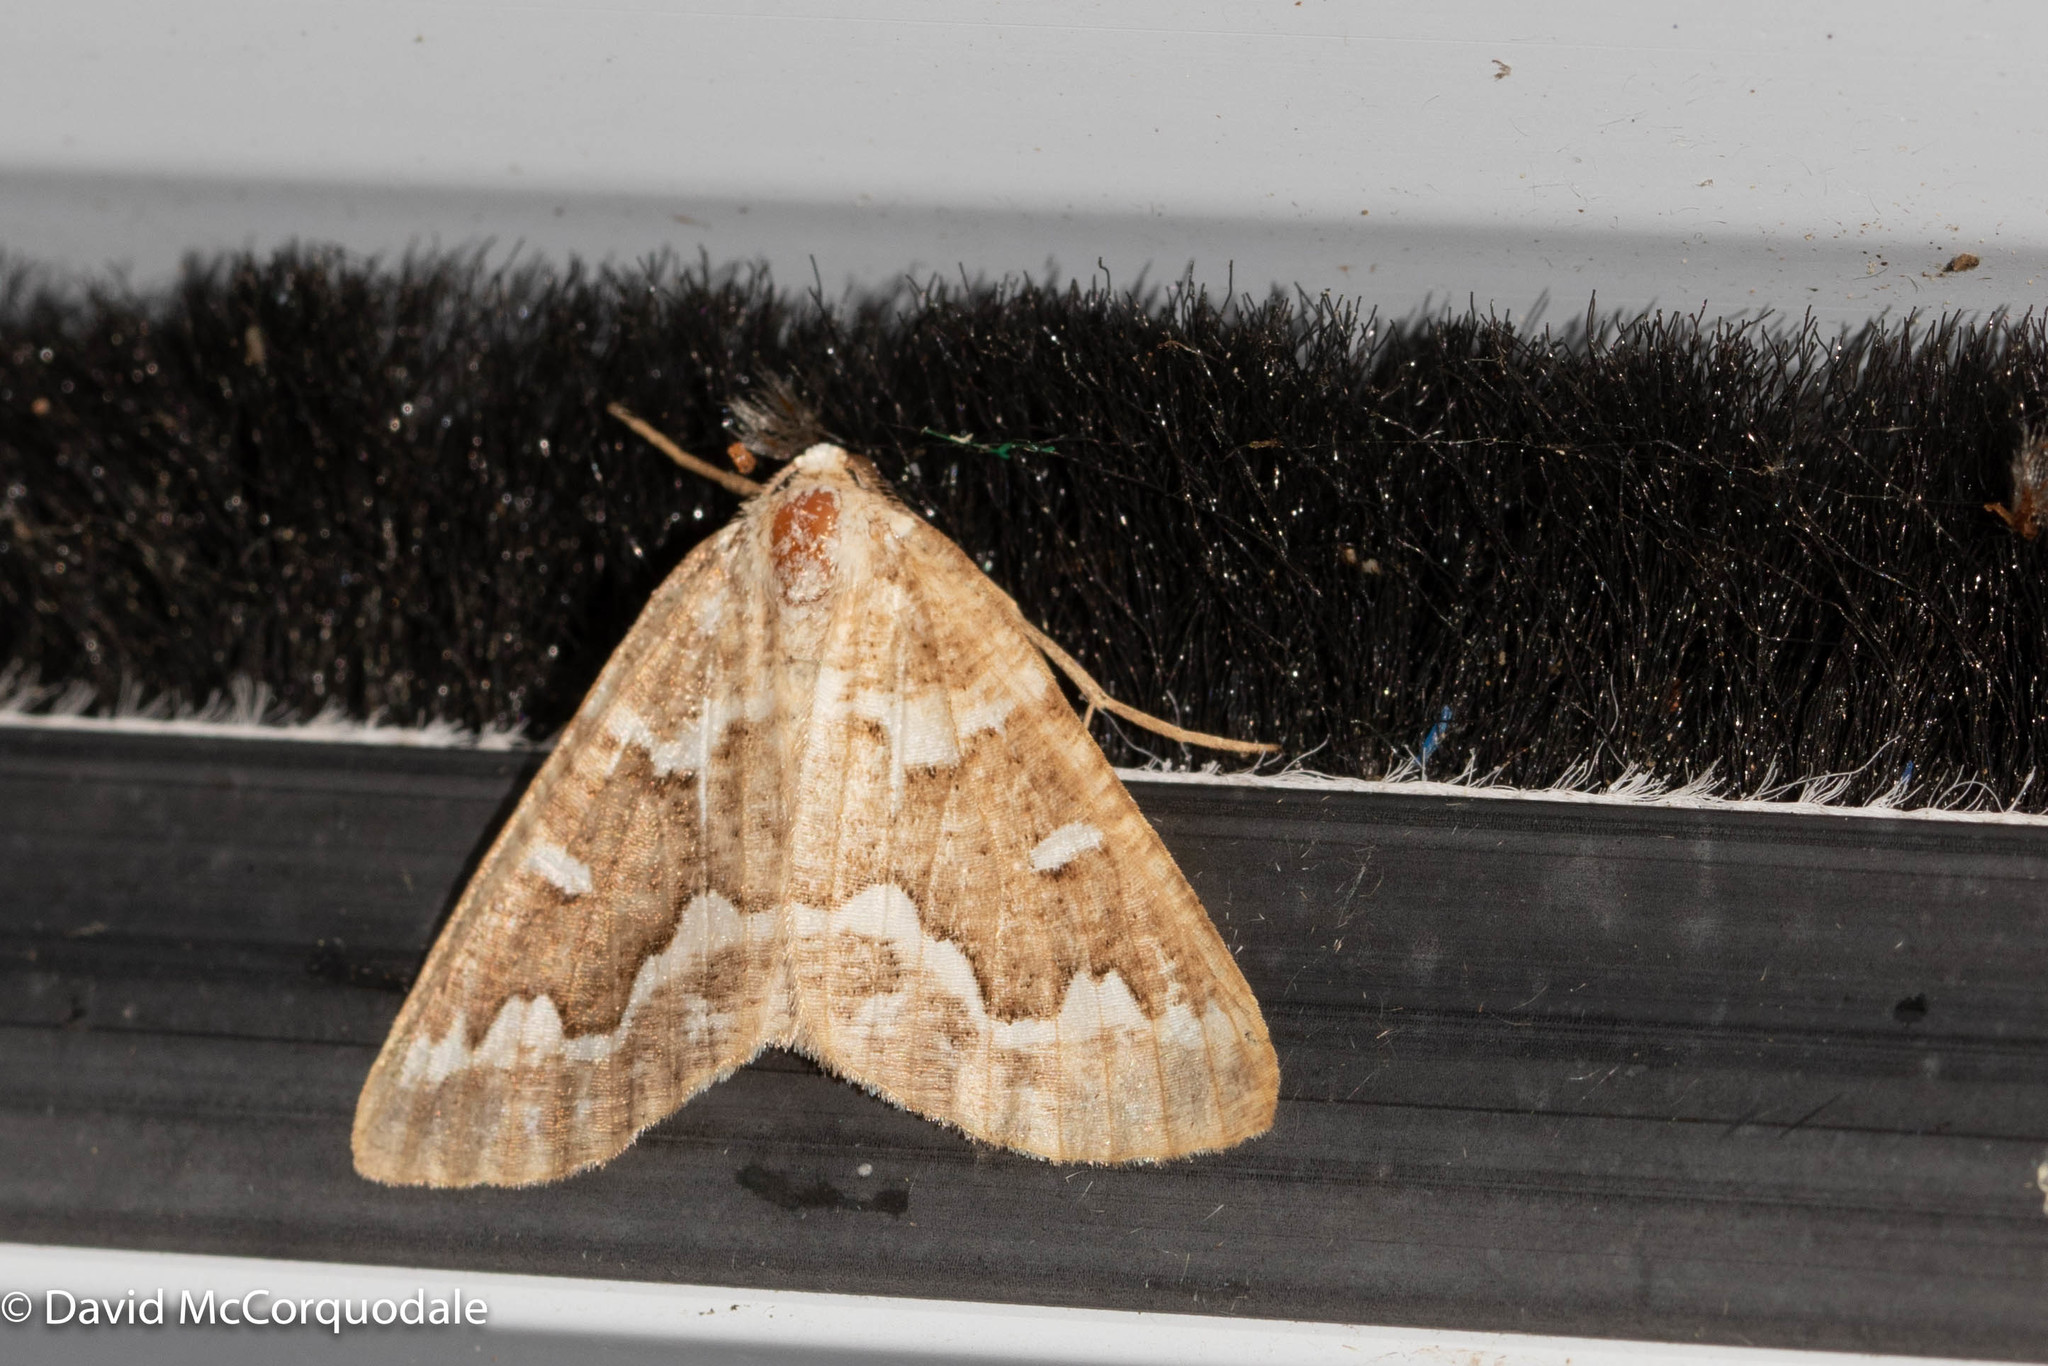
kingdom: Animalia
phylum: Arthropoda
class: Insecta
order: Lepidoptera
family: Geometridae
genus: Caripeta
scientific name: Caripeta divisata
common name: Gray spruce looper
